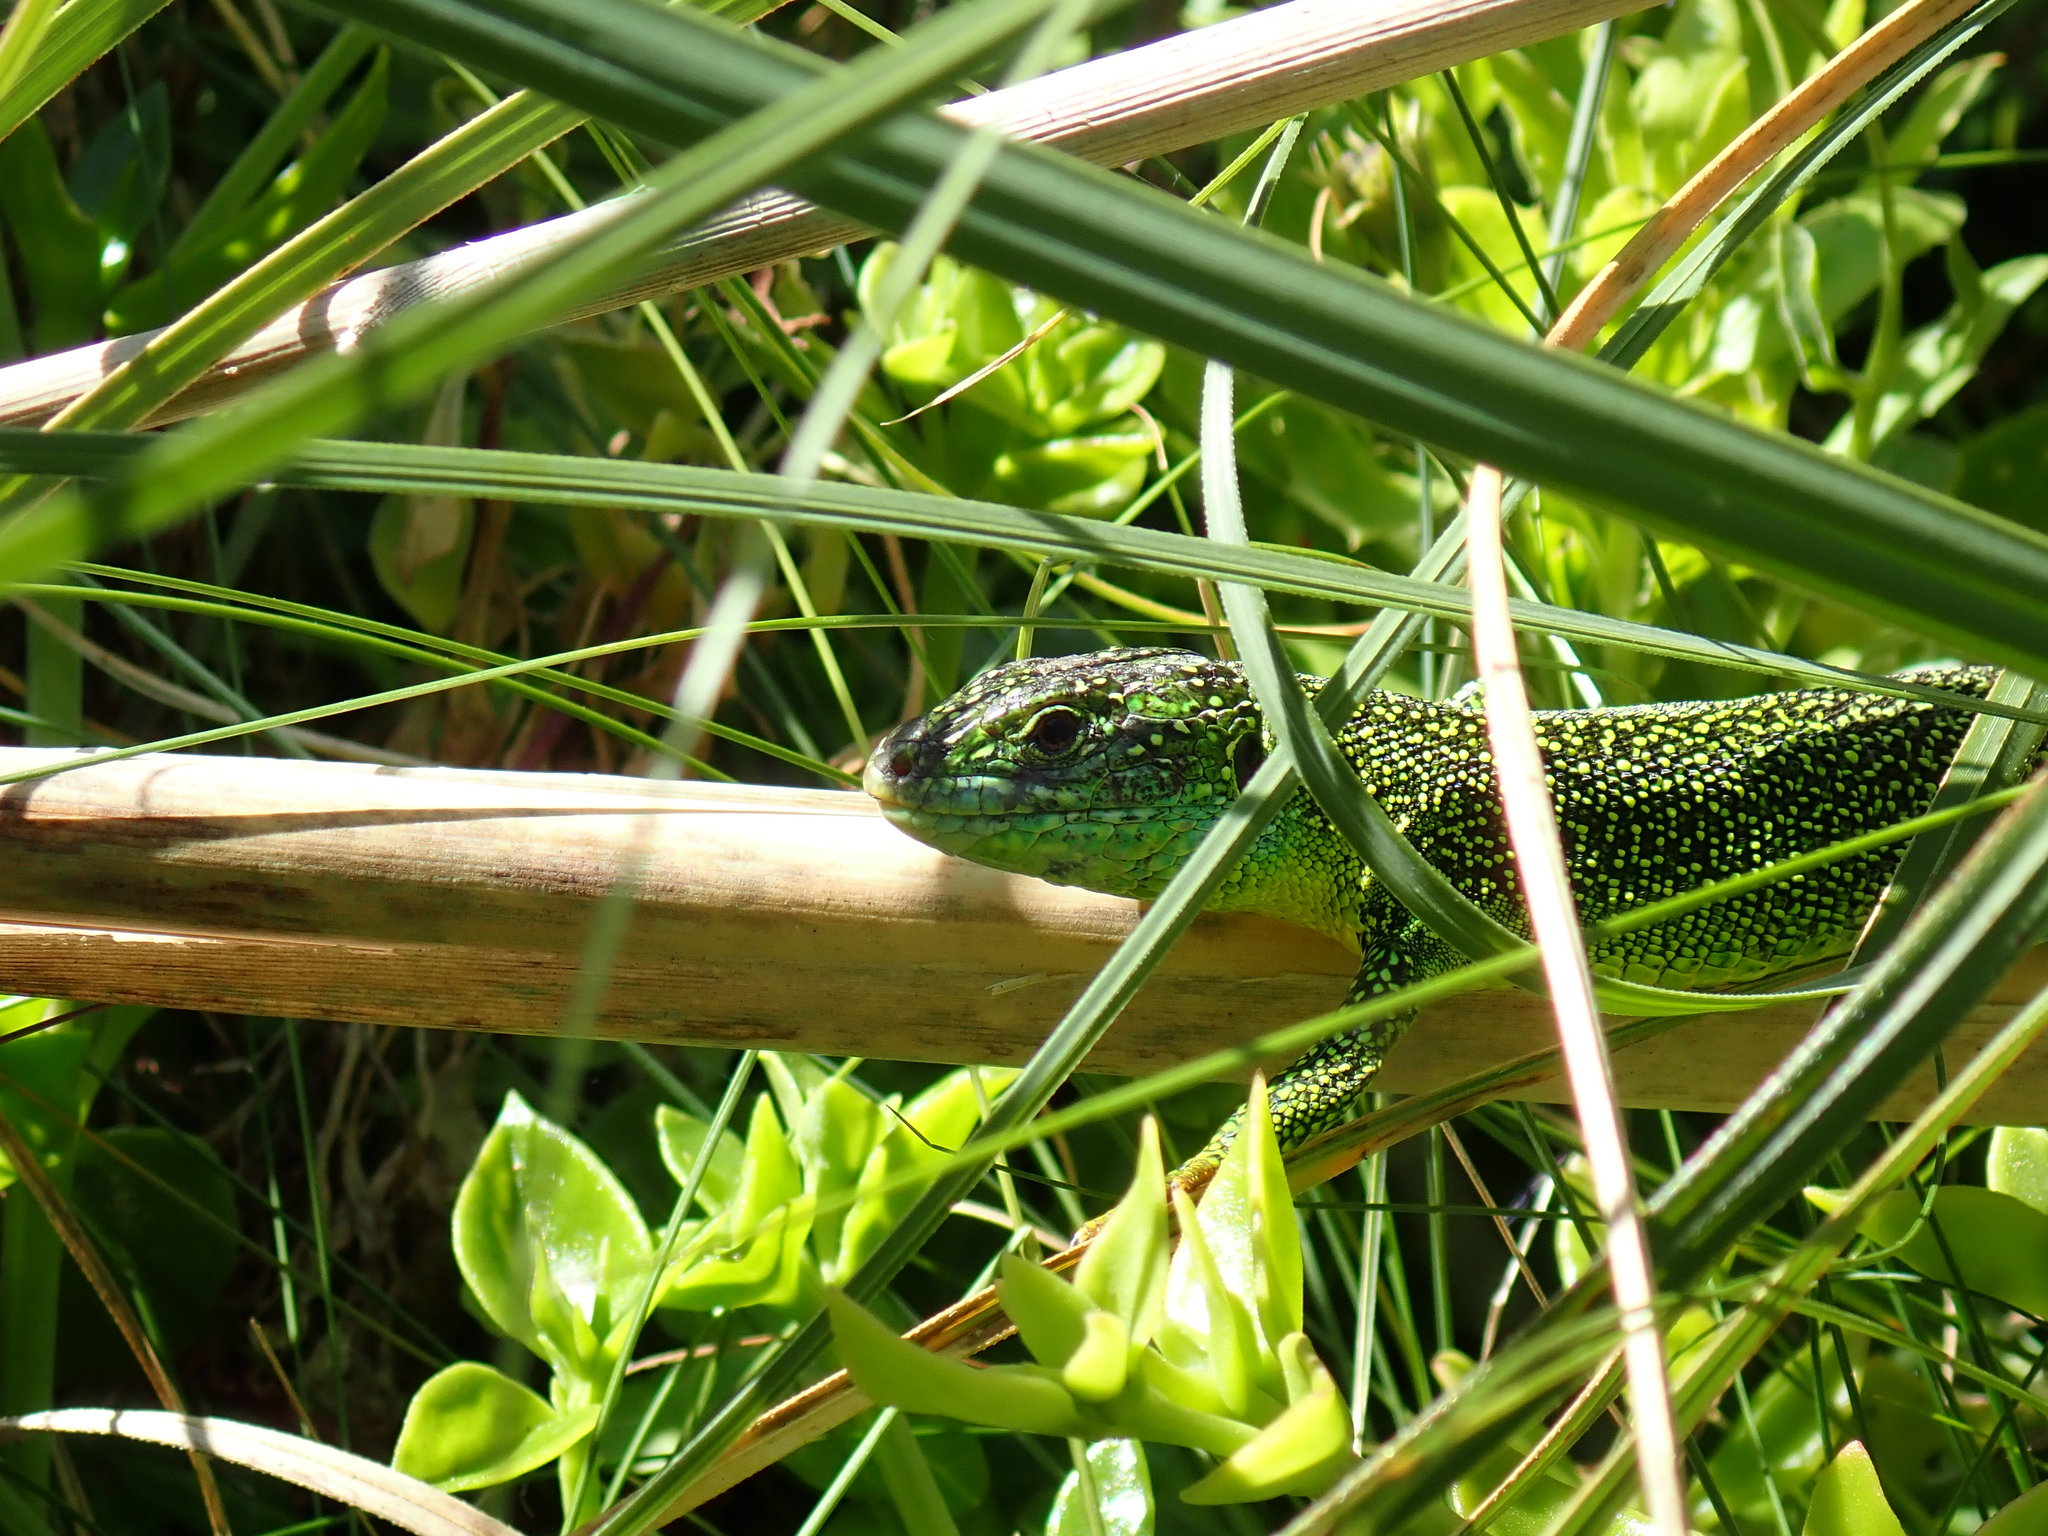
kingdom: Animalia
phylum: Chordata
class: Squamata
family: Lacertidae
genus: Lacerta
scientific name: Lacerta bilineata
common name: Western green lizard
